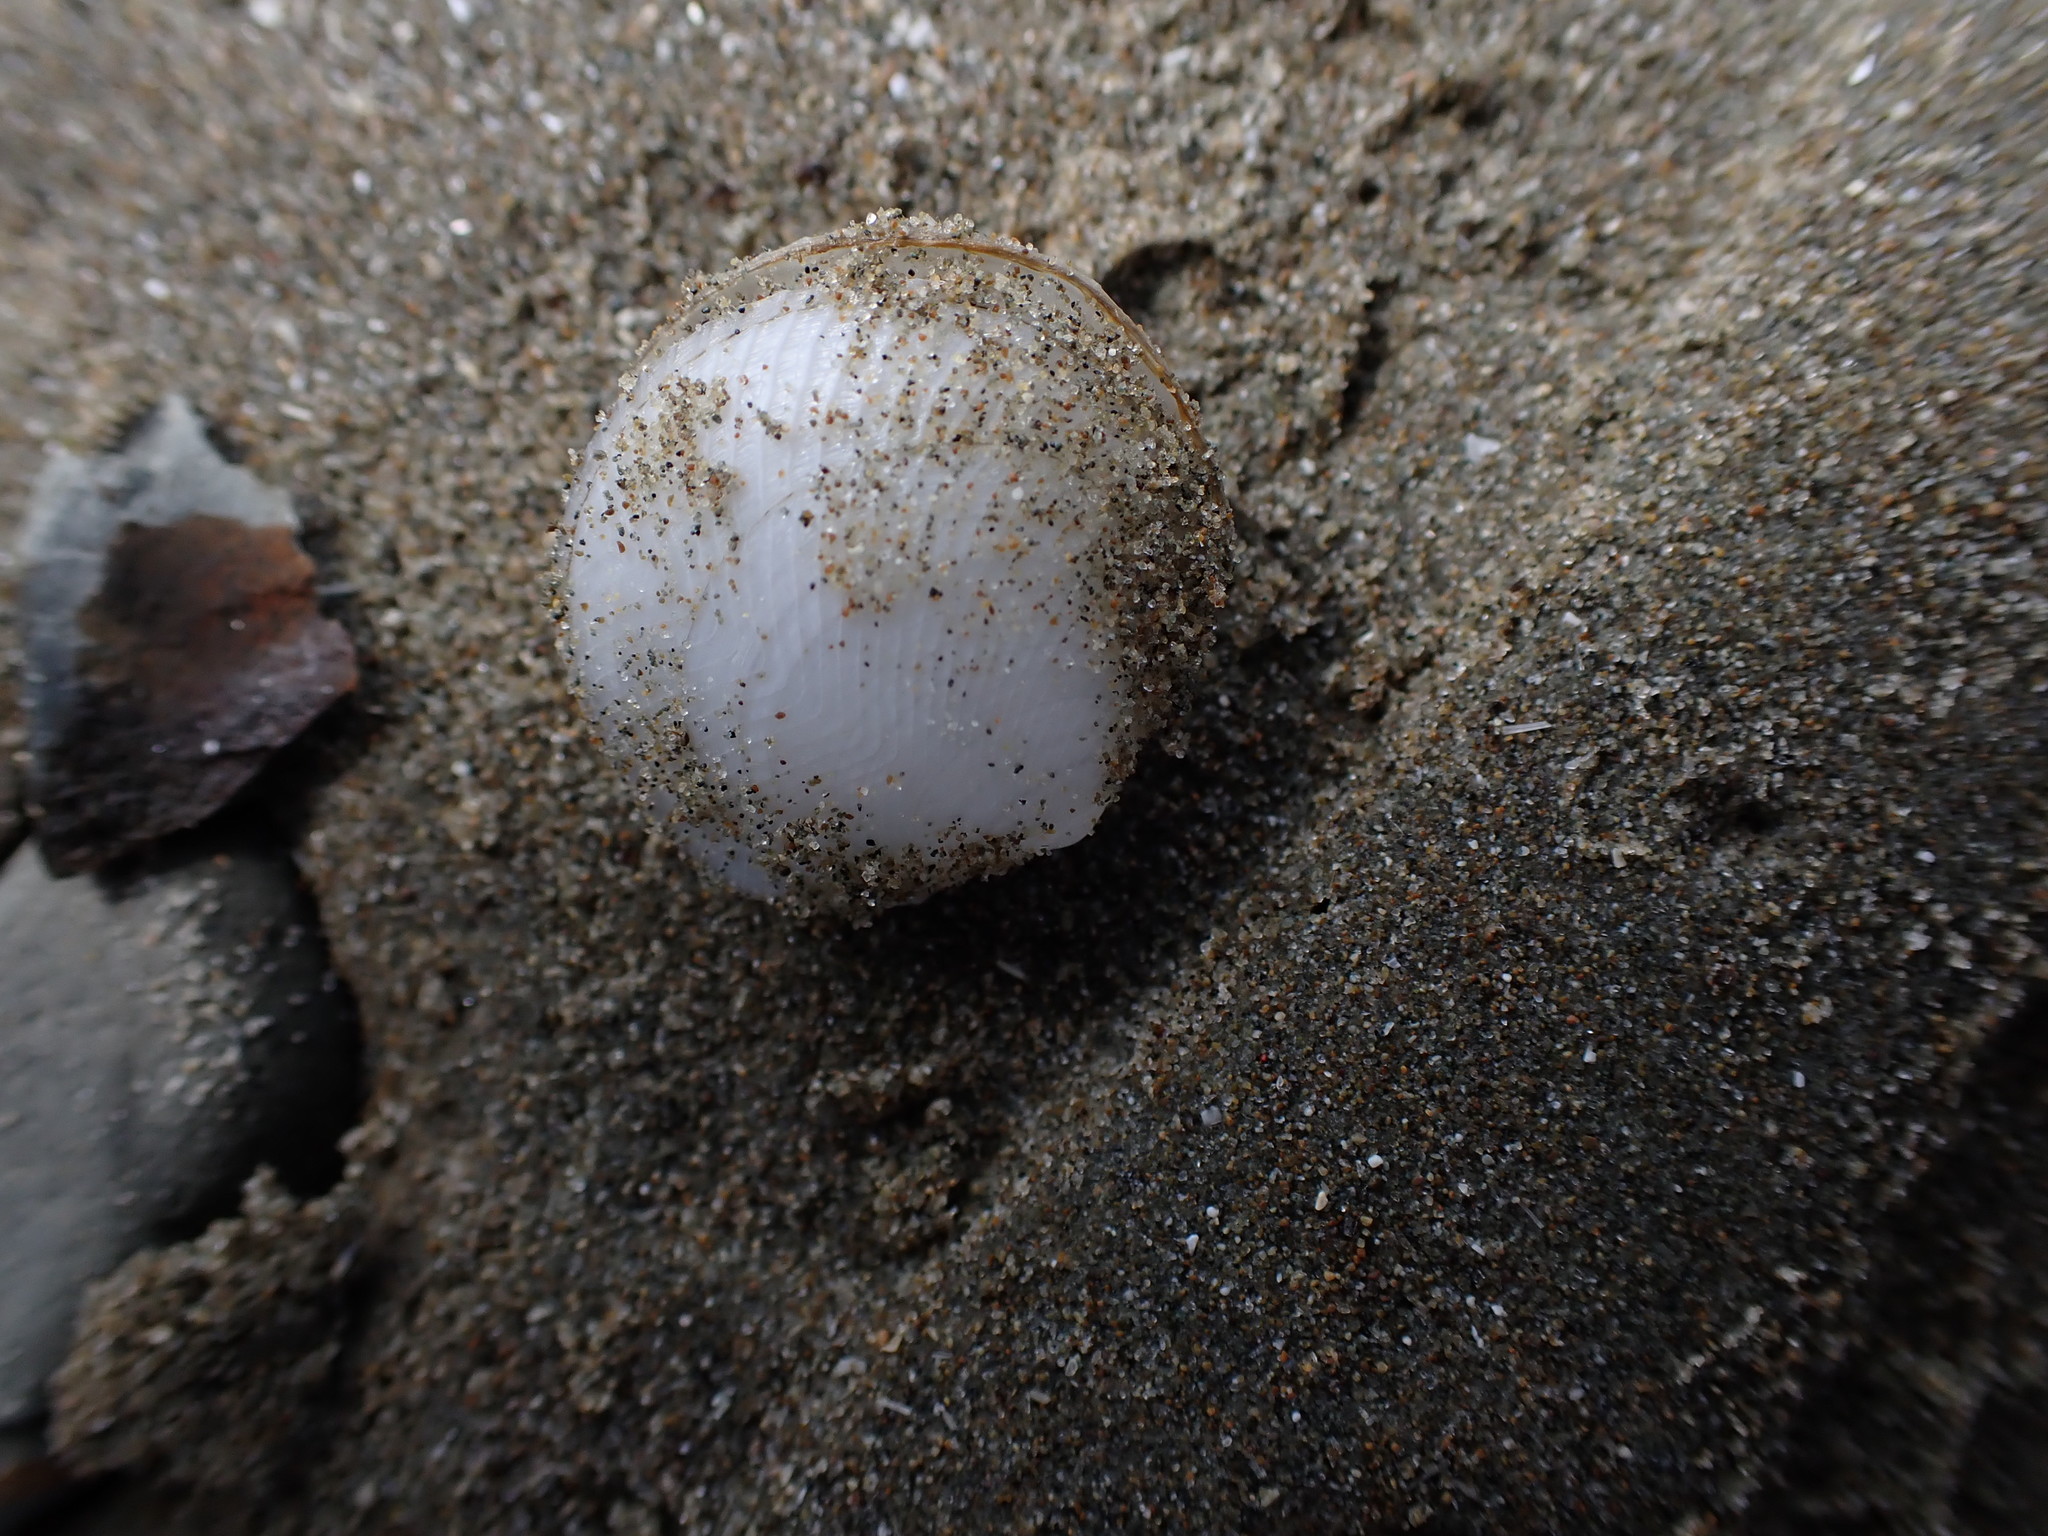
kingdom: Animalia
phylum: Mollusca
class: Bivalvia
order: Lucinida
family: Lucinidae
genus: Divalucina
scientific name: Divalucina cumingi
